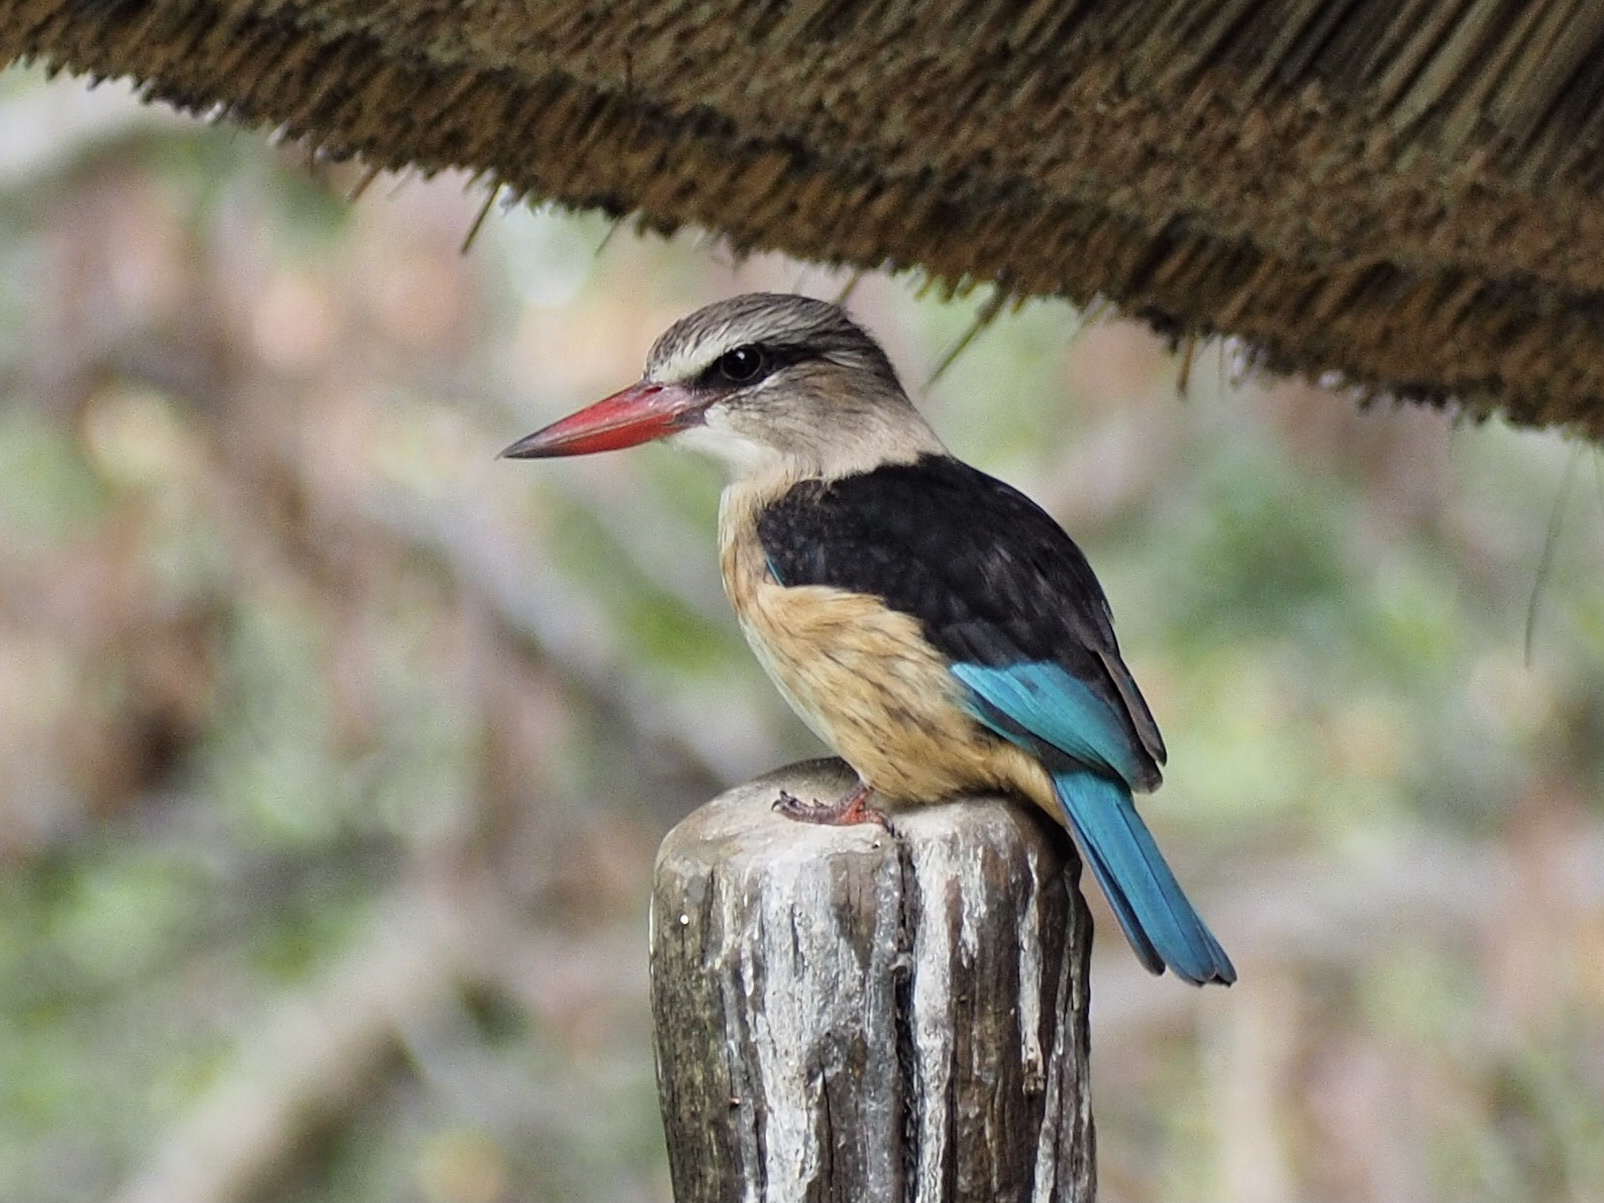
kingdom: Animalia
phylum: Chordata
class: Aves
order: Coraciiformes
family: Alcedinidae
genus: Halcyon
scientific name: Halcyon albiventris
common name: Brown-hooded kingfisher
